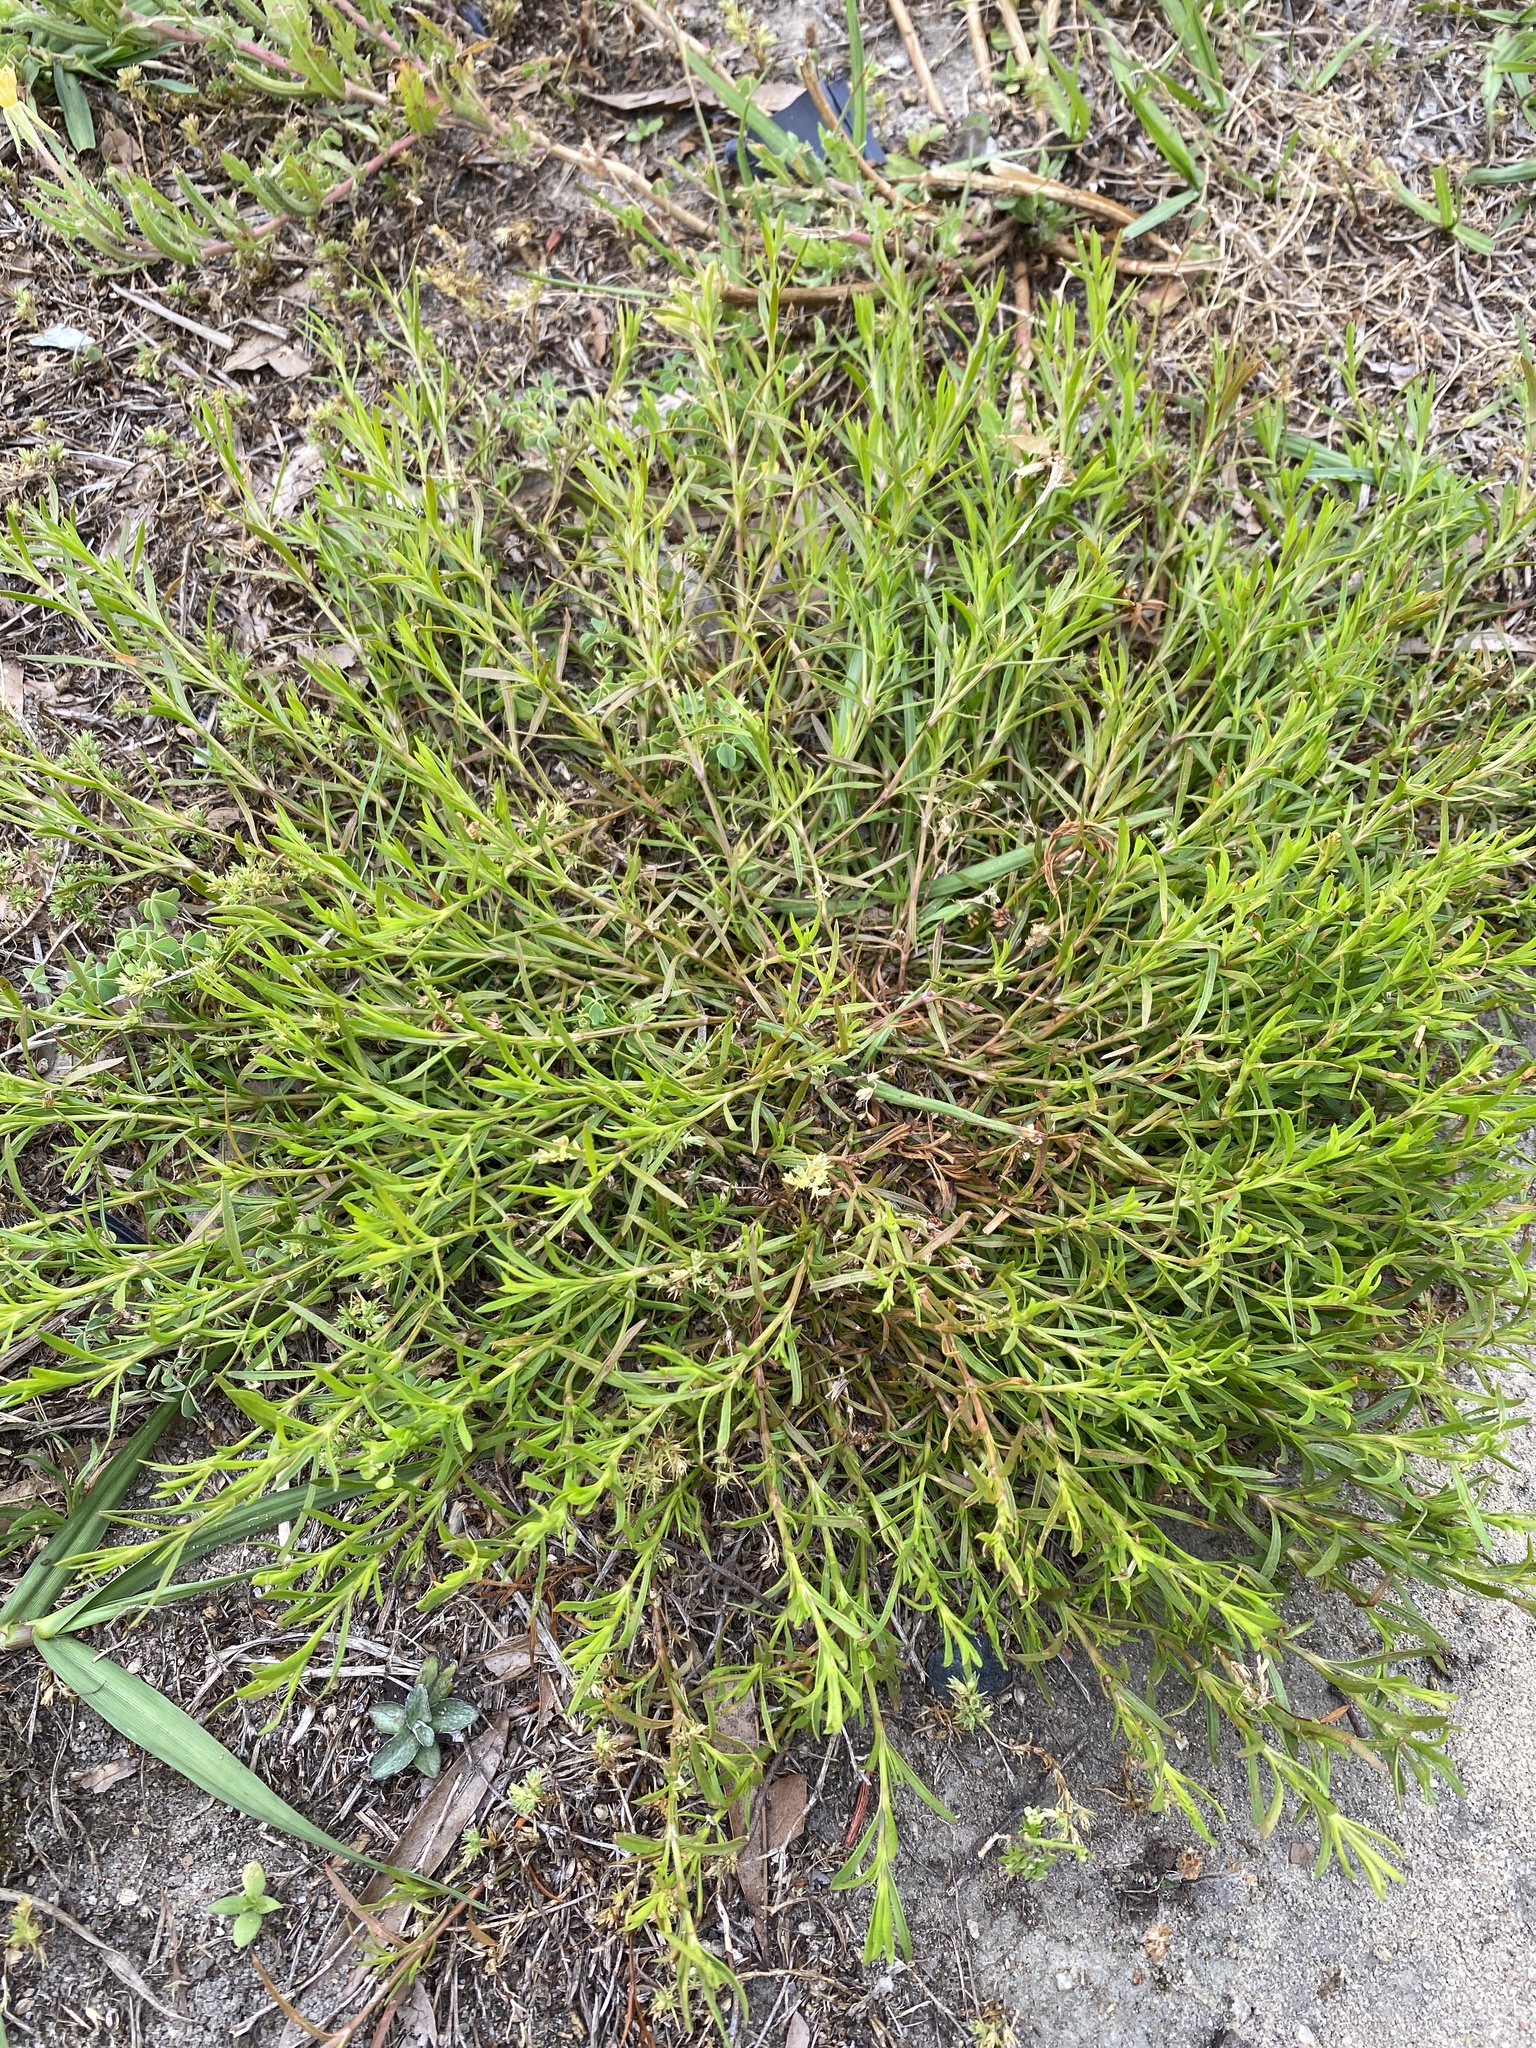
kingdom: Plantae
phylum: Tracheophyta
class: Magnoliopsida
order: Lamiales
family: Tetrachondraceae
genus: Polypremum
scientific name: Polypremum procumbens
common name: Juniper-leaf
